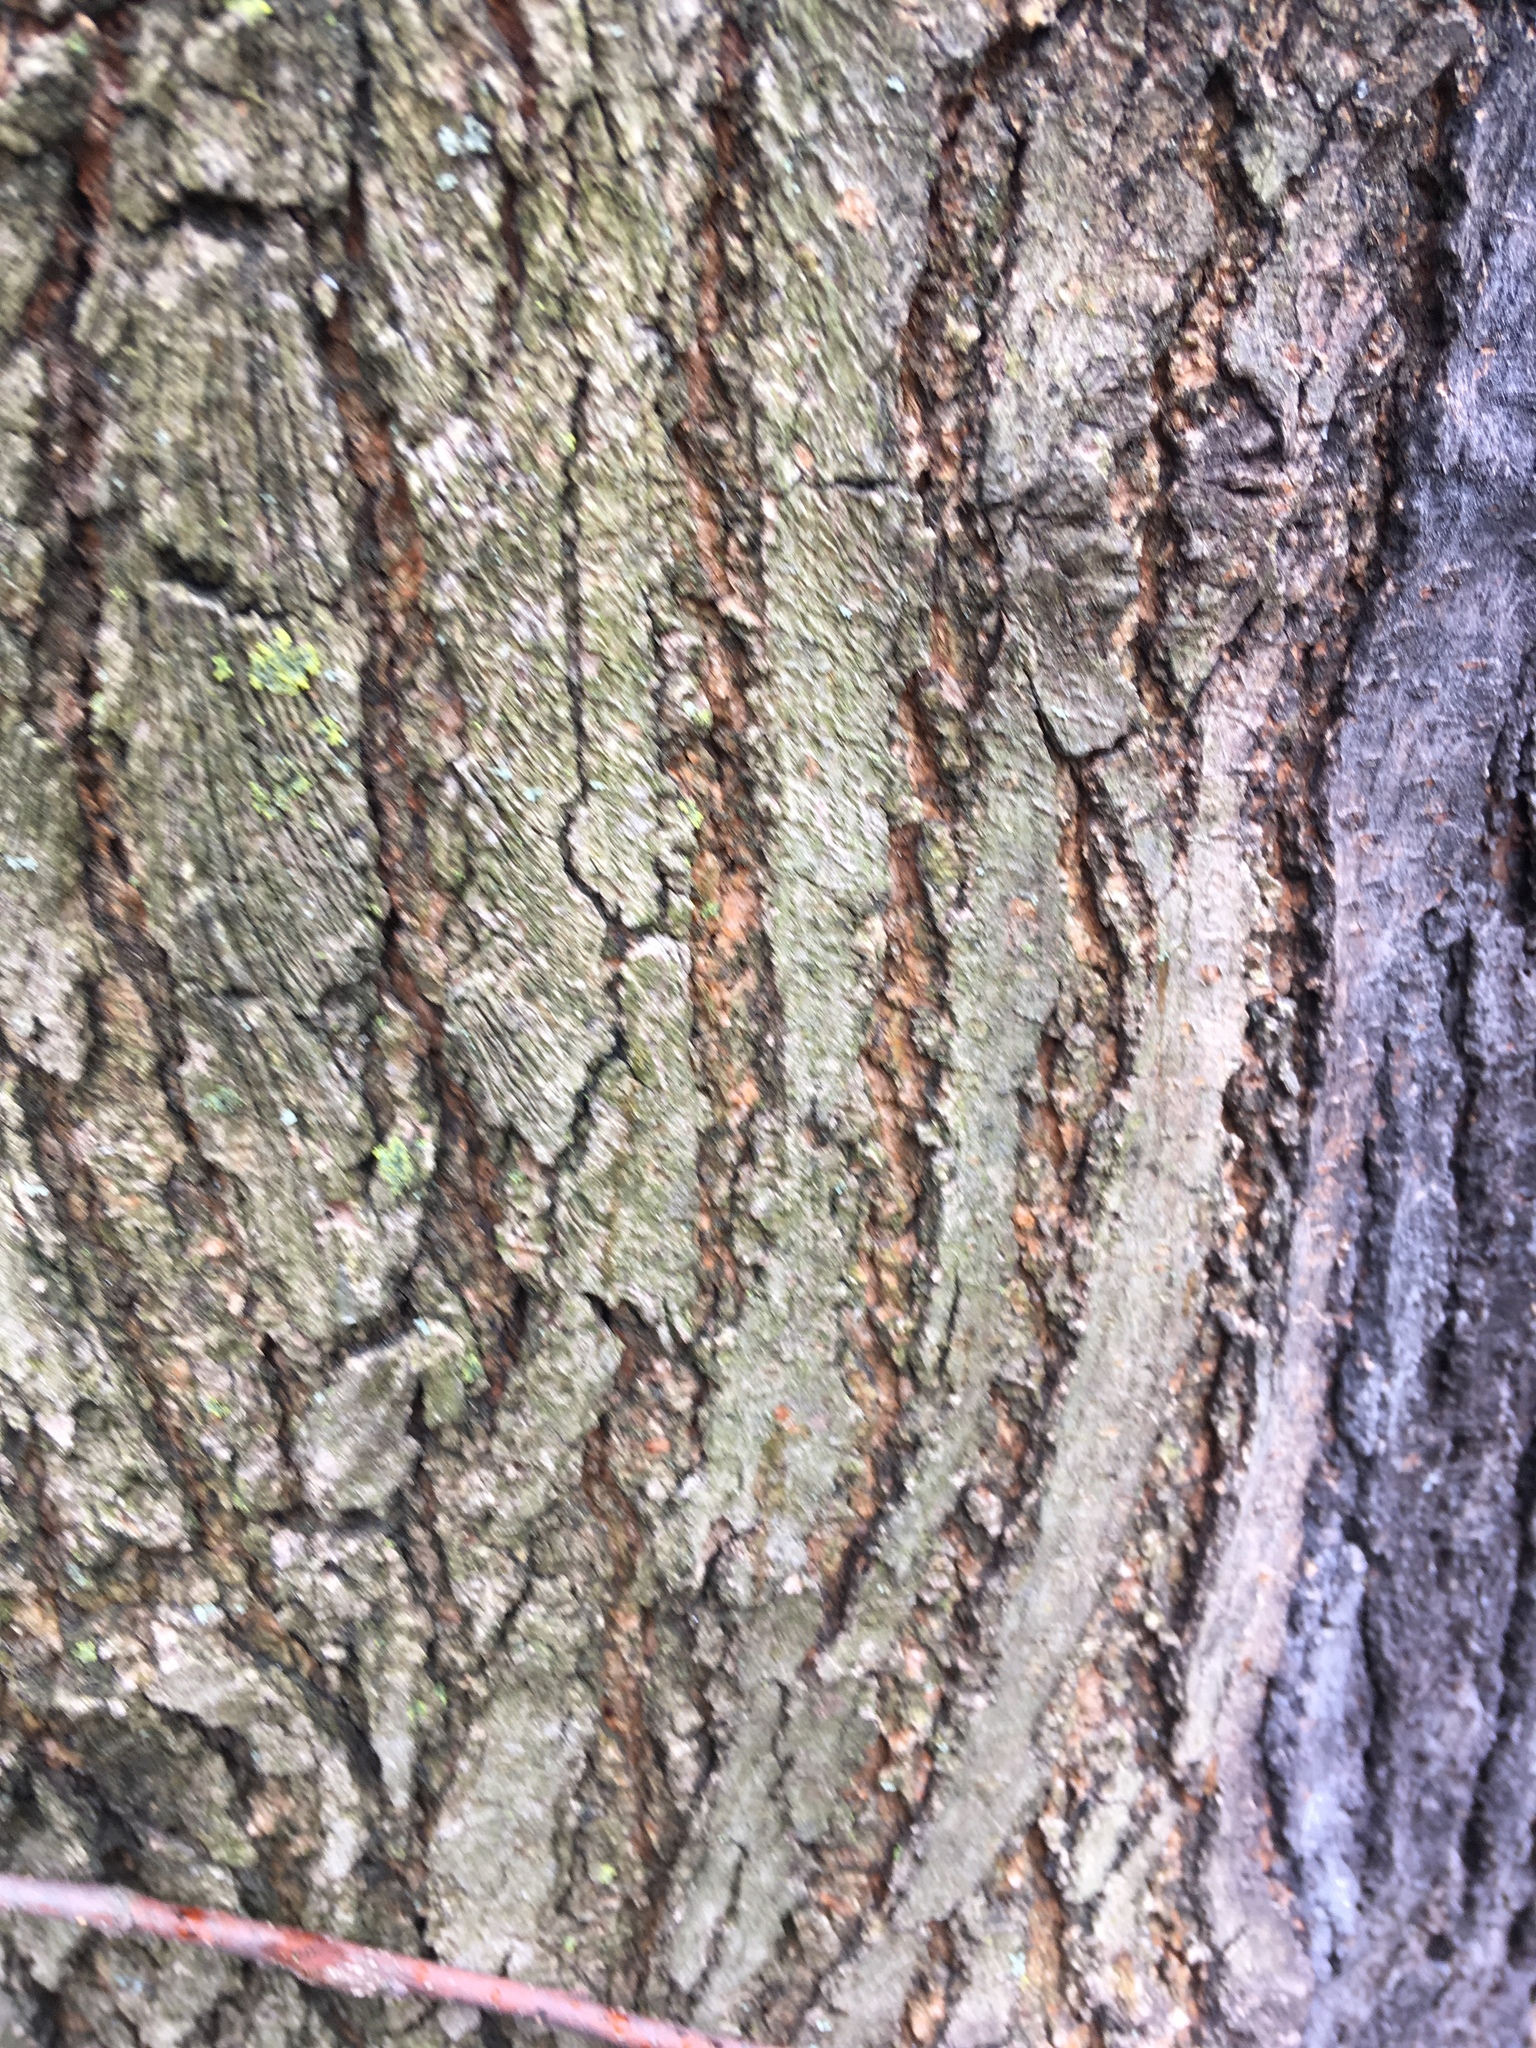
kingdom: Plantae
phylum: Tracheophyta
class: Magnoliopsida
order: Rosales
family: Moraceae
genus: Morus
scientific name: Morus alba
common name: White mulberry
